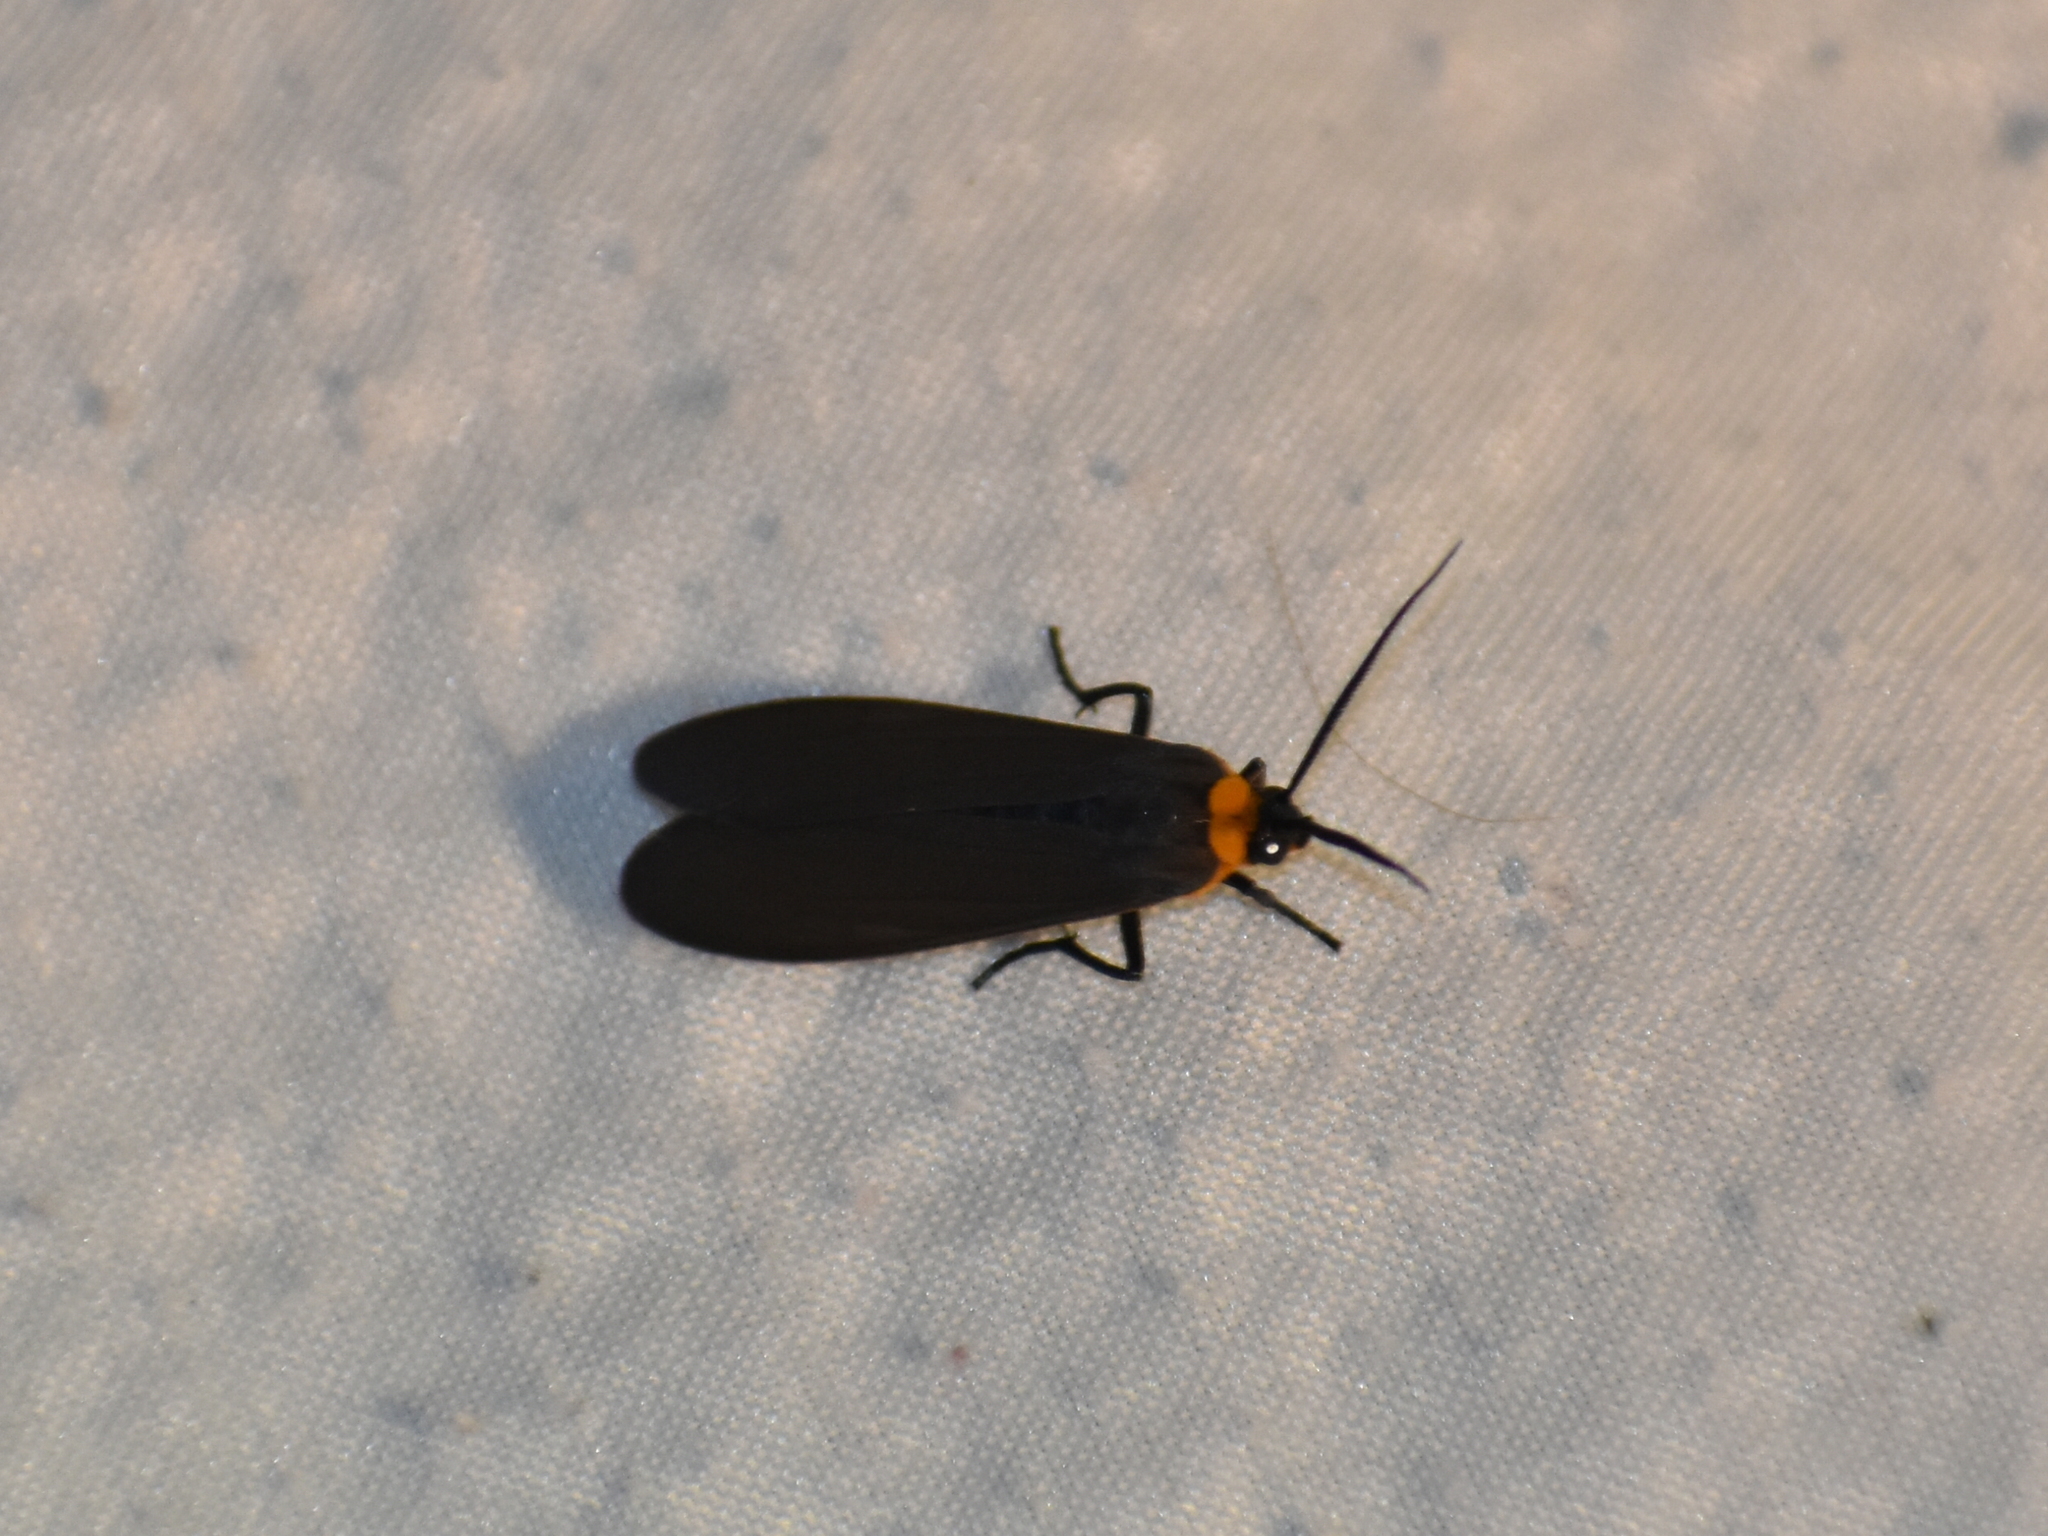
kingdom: Animalia
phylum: Arthropoda
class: Insecta
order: Lepidoptera
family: Erebidae
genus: Cisseps
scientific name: Cisseps fulvicollis
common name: Yellow-collared scape moth
